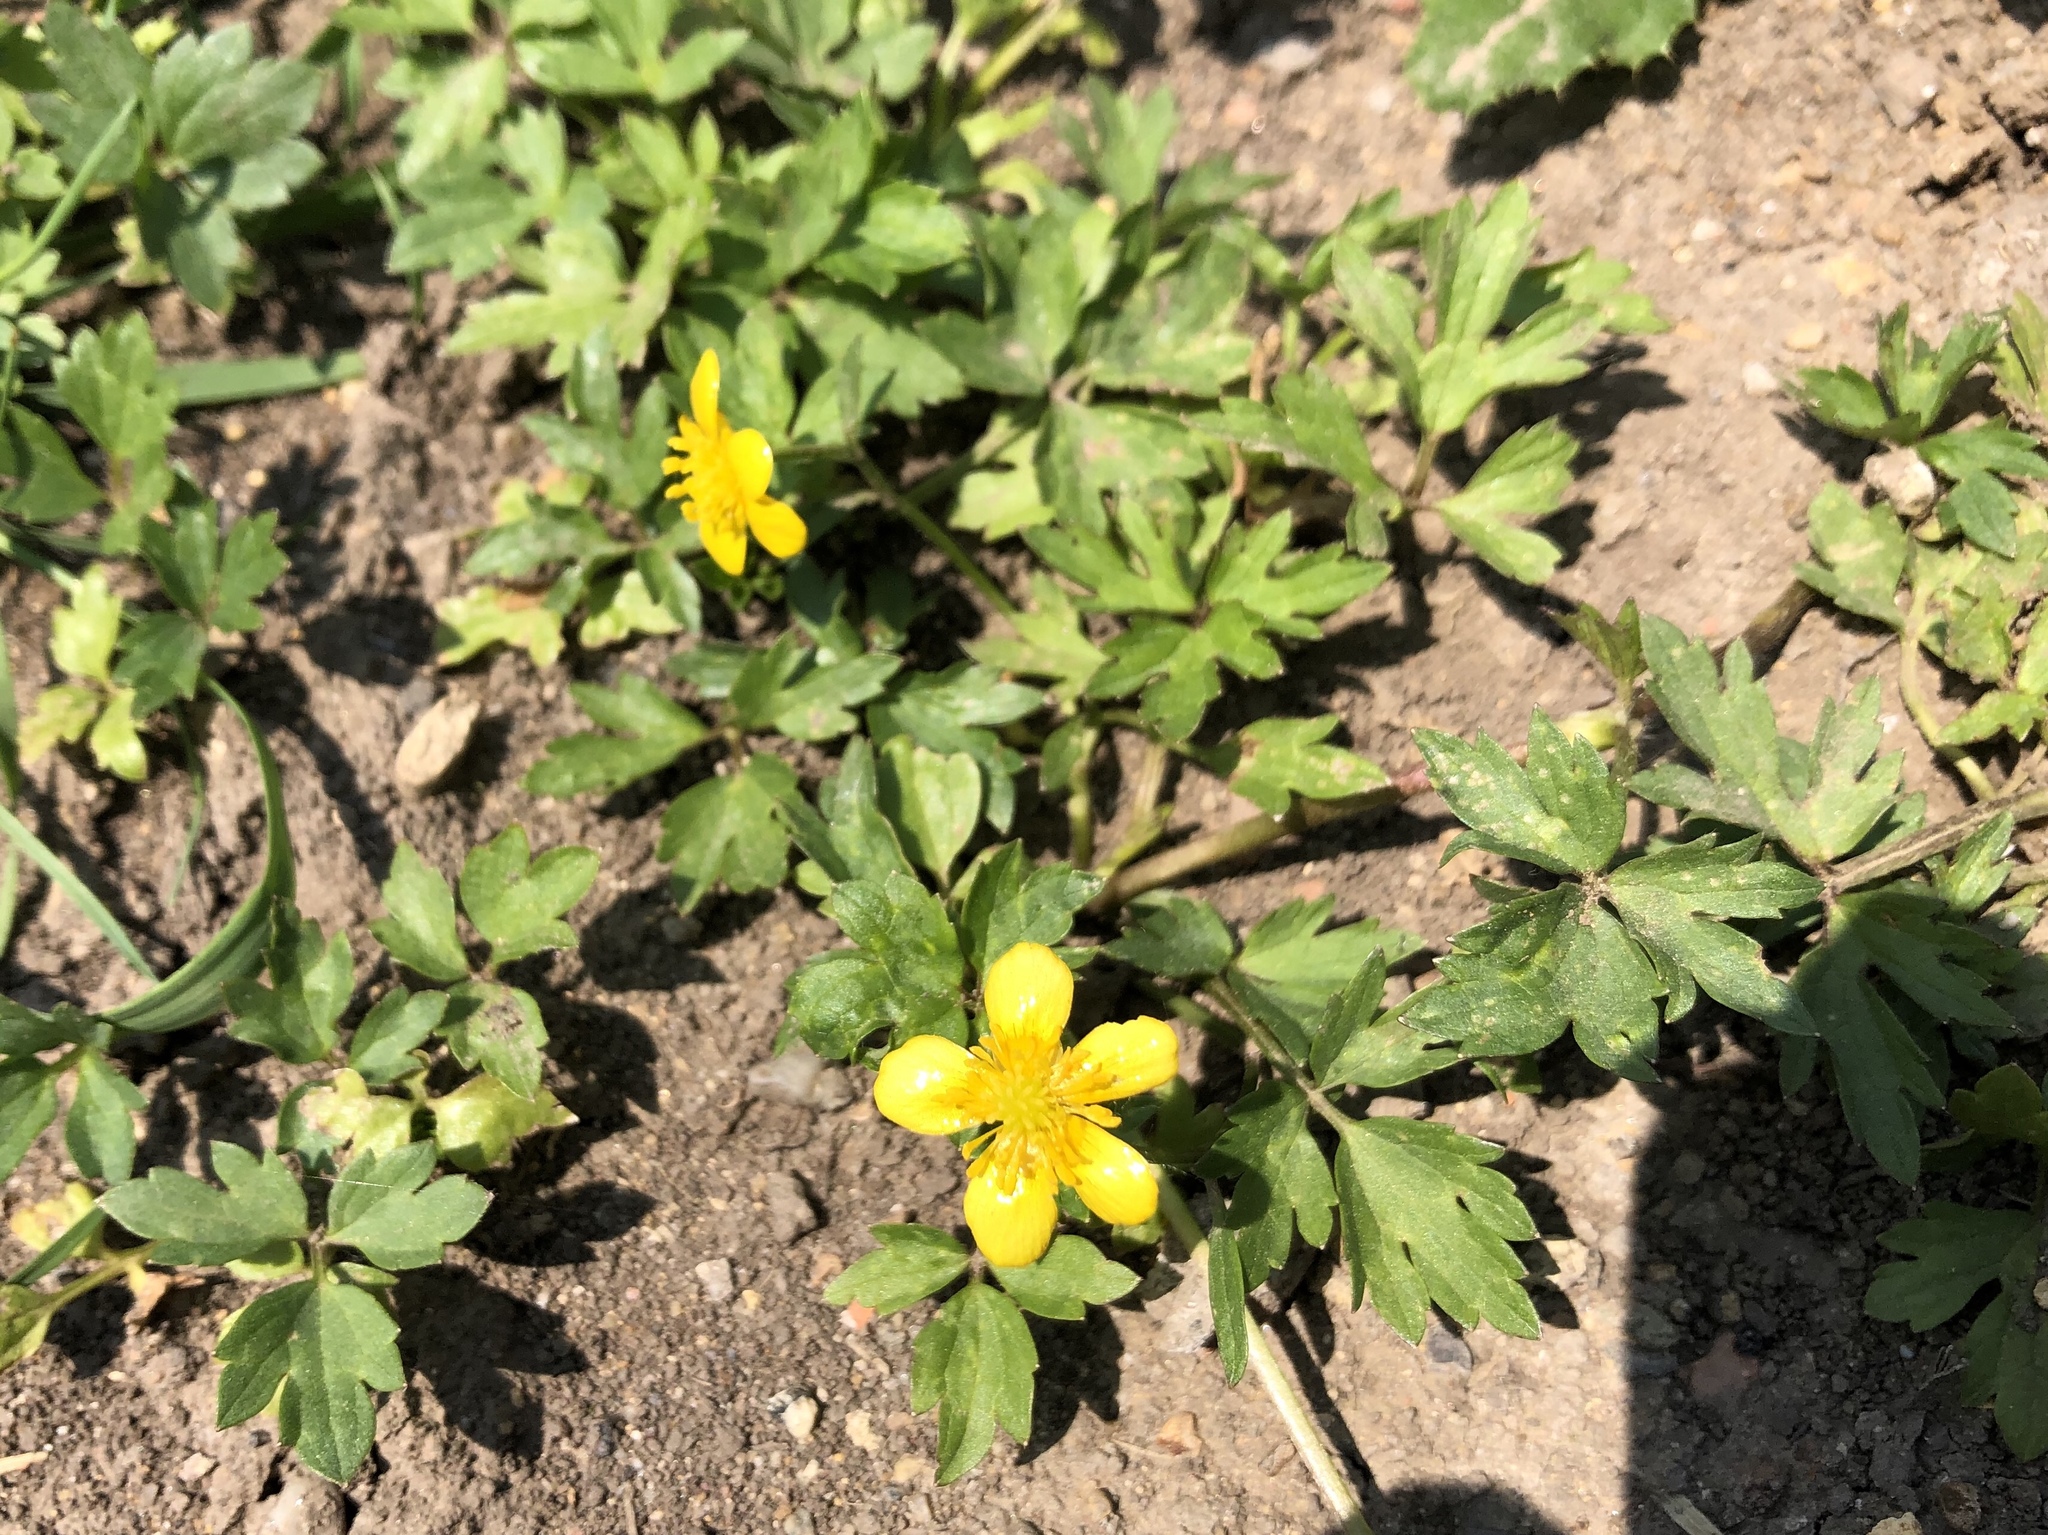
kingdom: Plantae
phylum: Tracheophyta
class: Magnoliopsida
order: Ranunculales
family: Ranunculaceae
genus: Ranunculus
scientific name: Ranunculus repens
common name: Creeping buttercup
